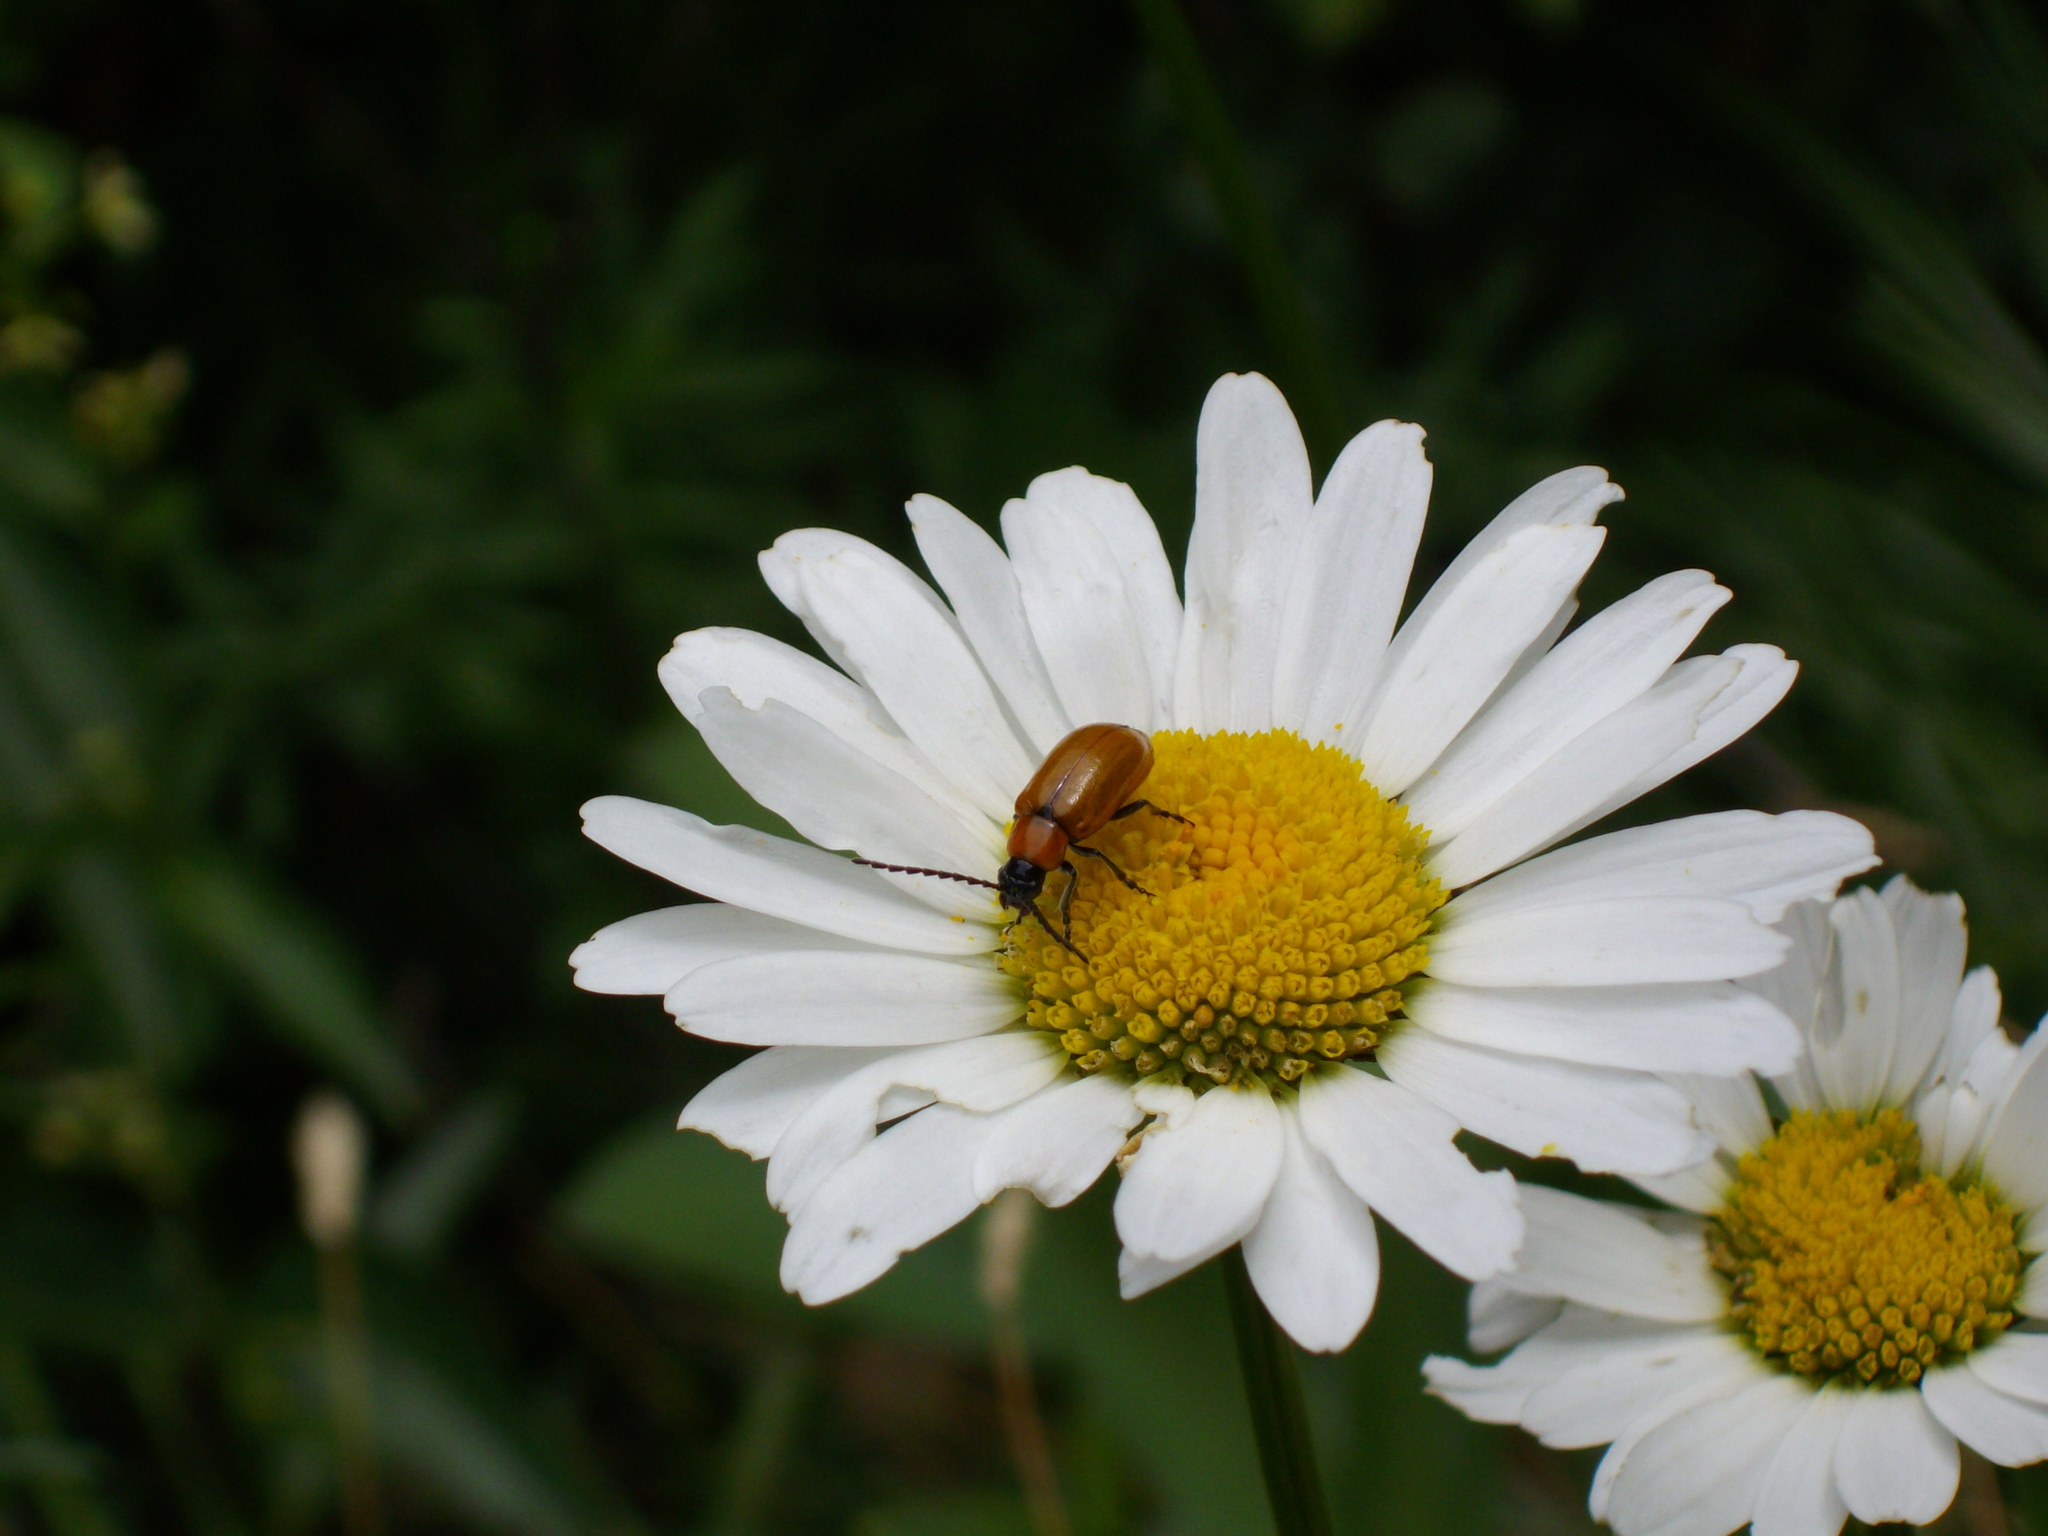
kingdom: Animalia
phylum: Arthropoda
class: Insecta
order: Coleoptera
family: Chrysomelidae
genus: Exosoma
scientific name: Exosoma lusitanicum
